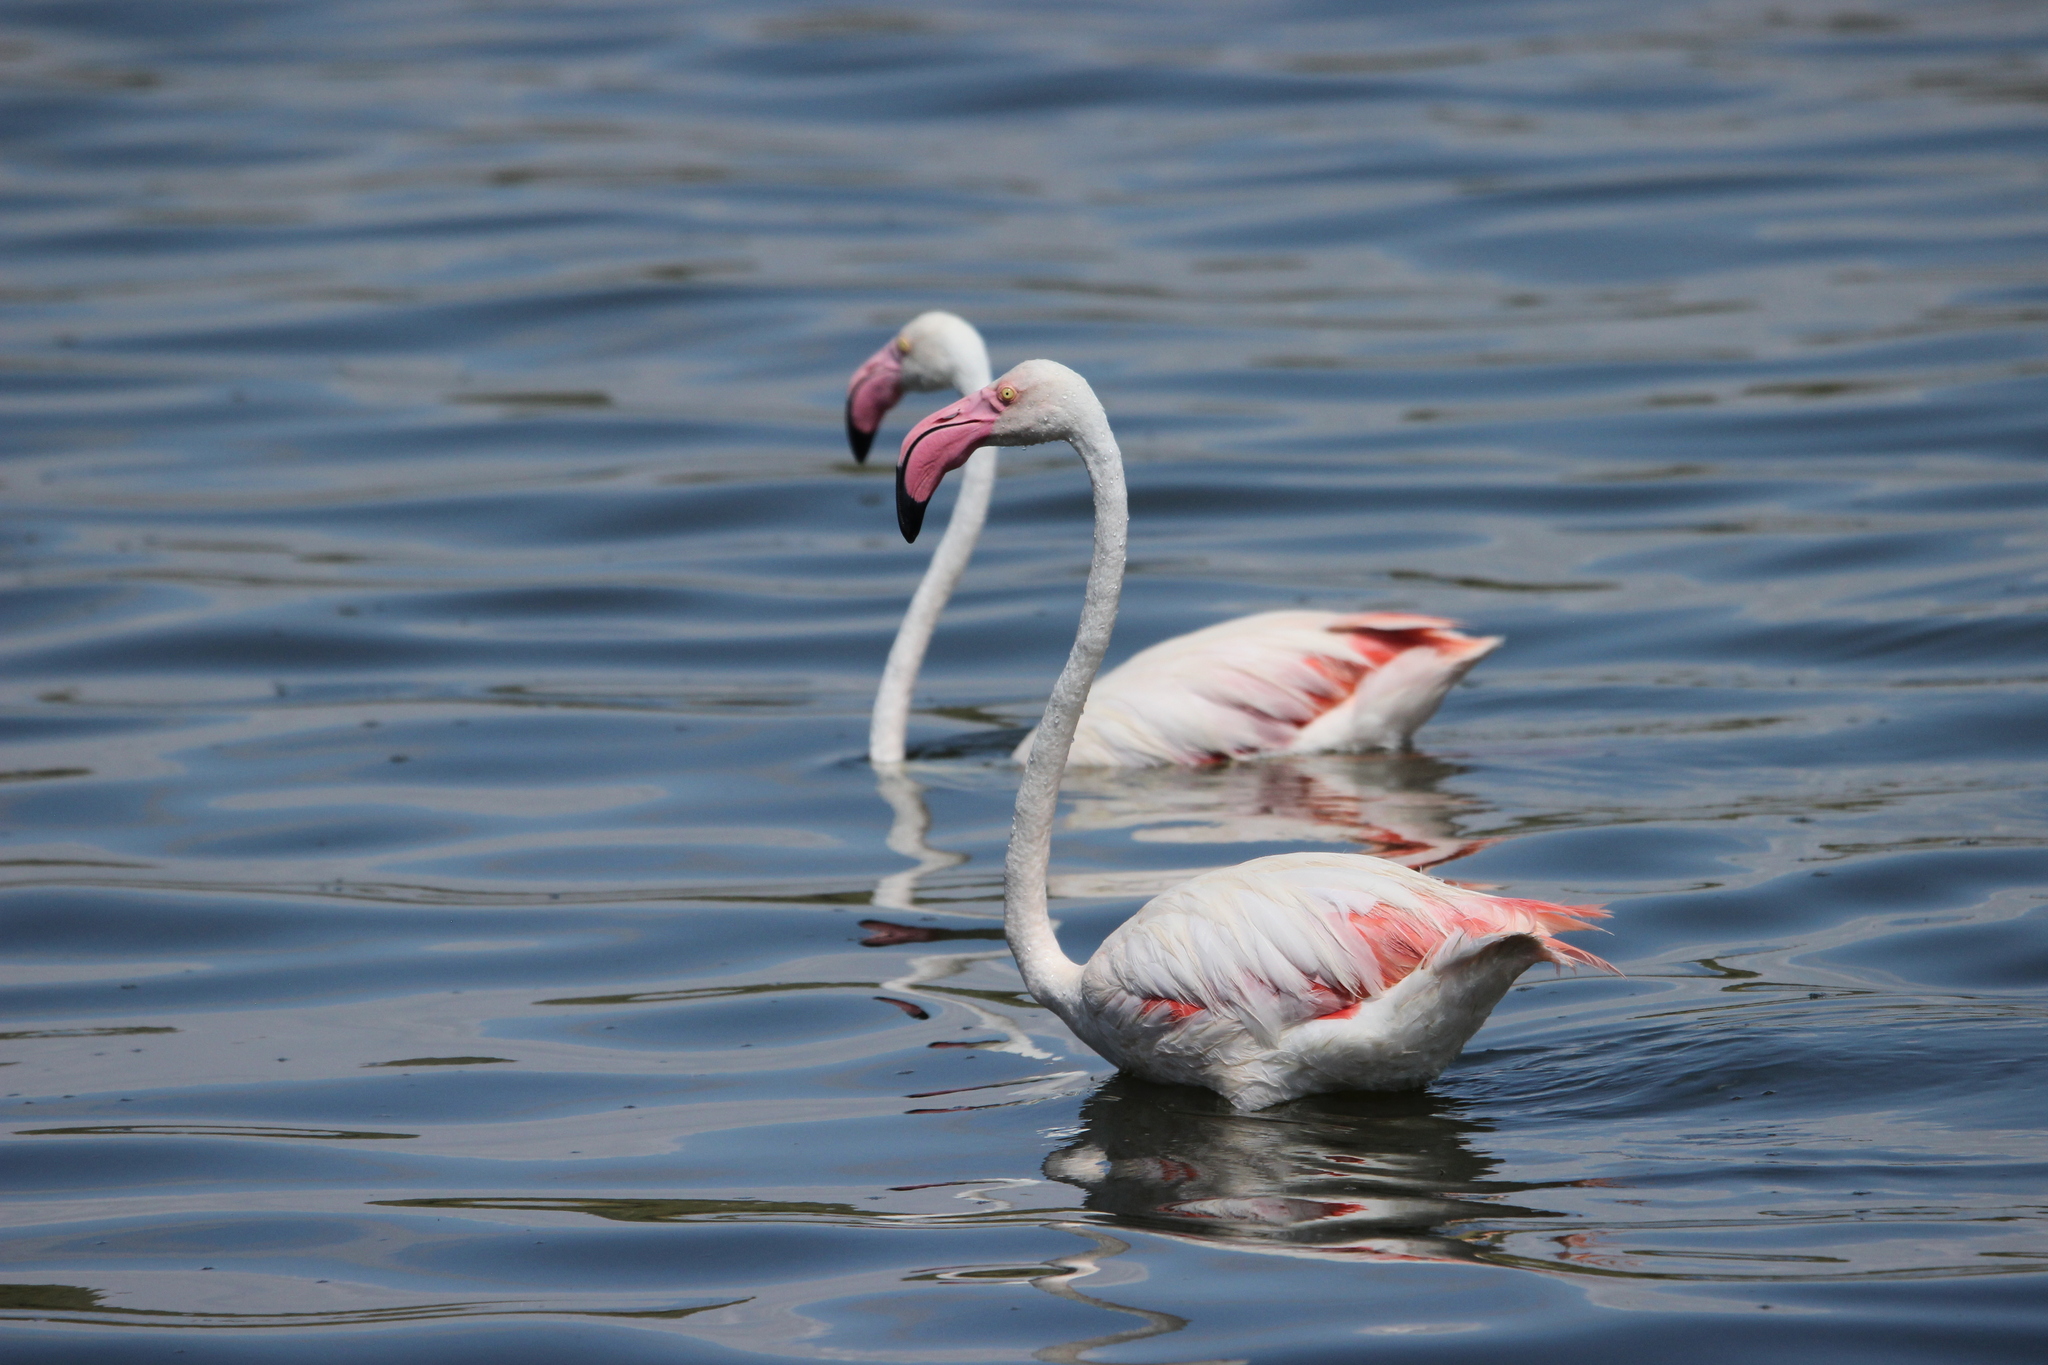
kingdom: Animalia
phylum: Chordata
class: Aves
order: Phoenicopteriformes
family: Phoenicopteridae
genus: Phoenicopterus
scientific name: Phoenicopterus roseus
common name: Greater flamingo
